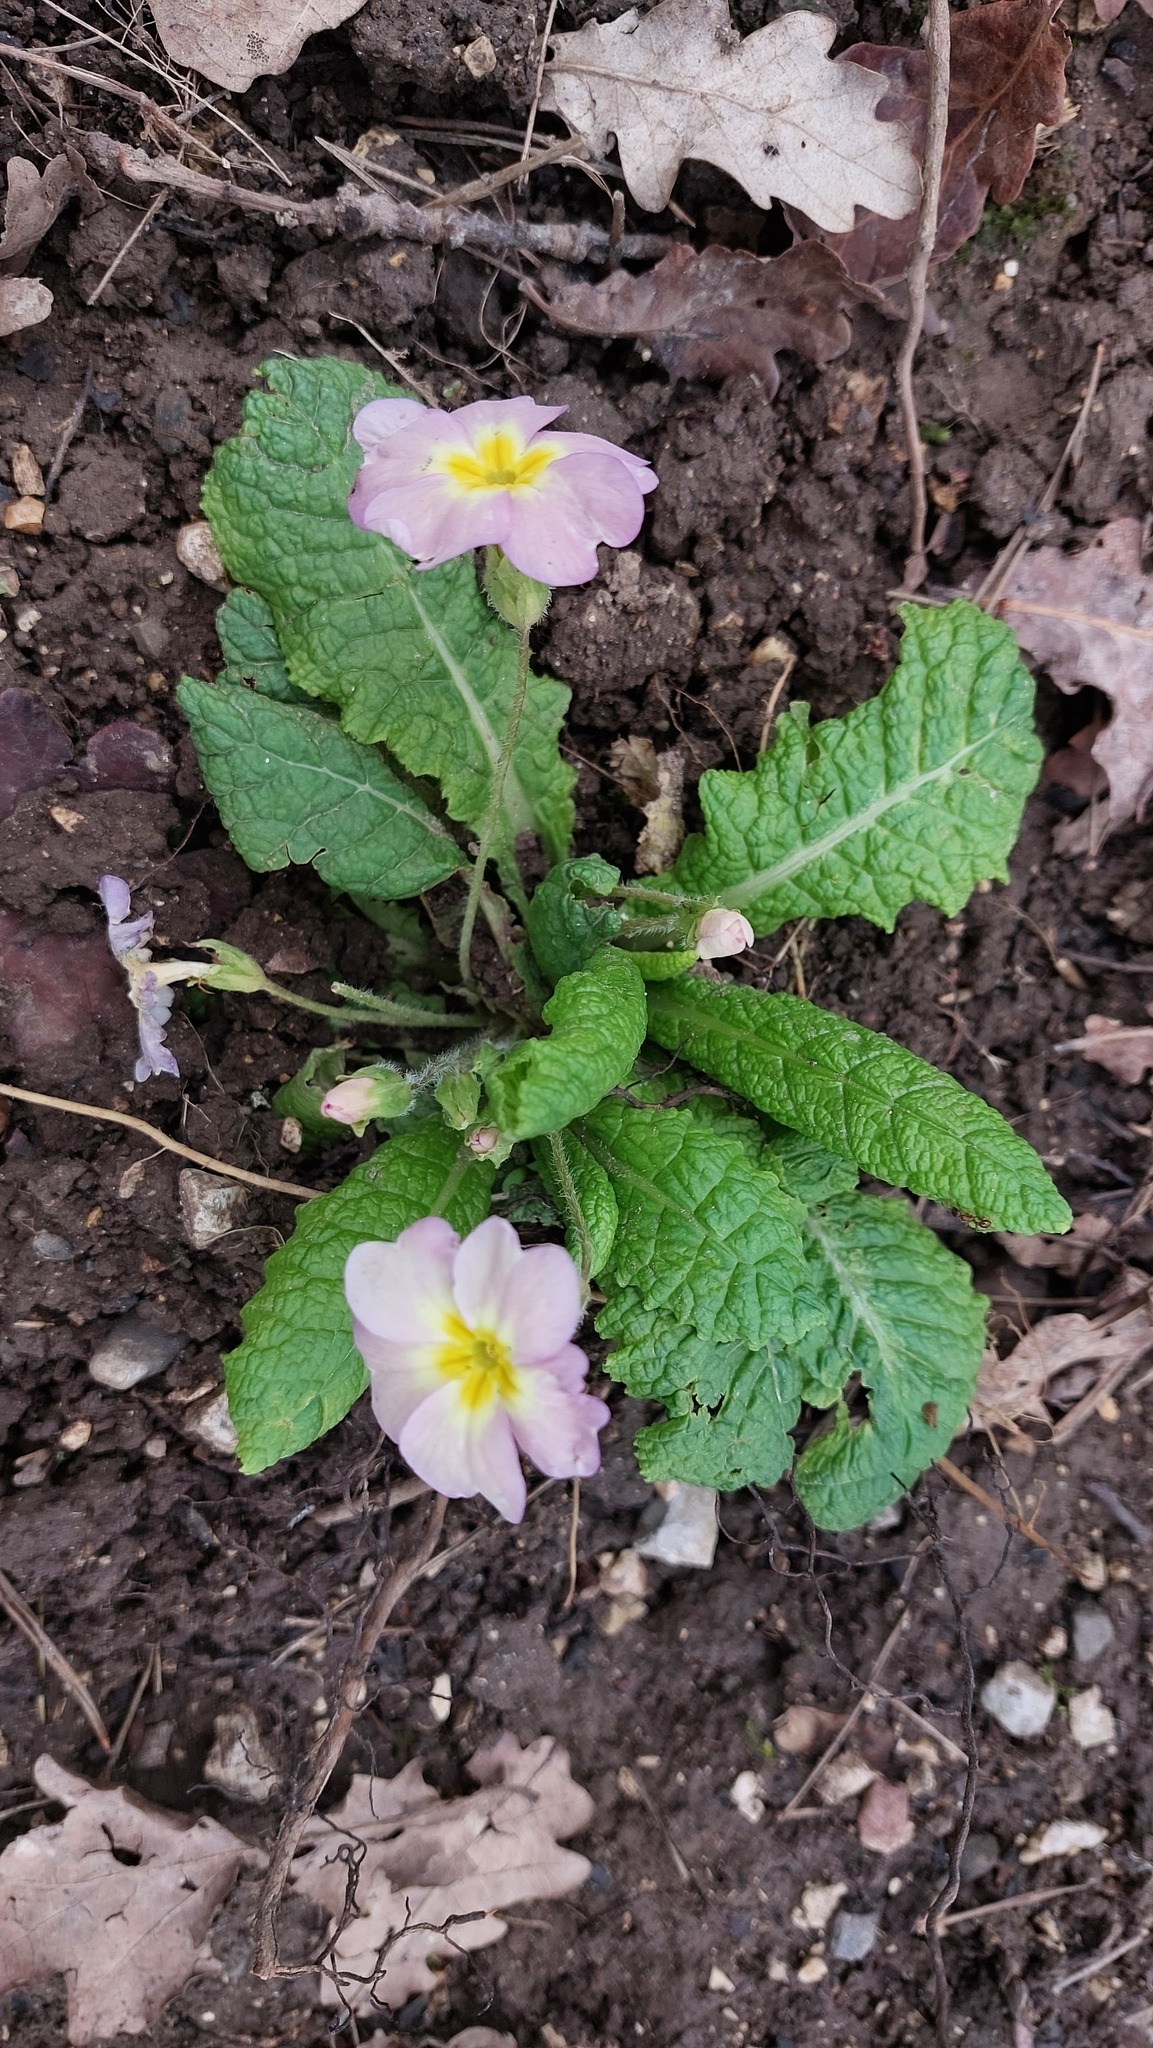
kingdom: Plantae
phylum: Tracheophyta
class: Magnoliopsida
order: Ericales
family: Primulaceae
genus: Primula
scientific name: Primula vulgaris
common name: Primrose
